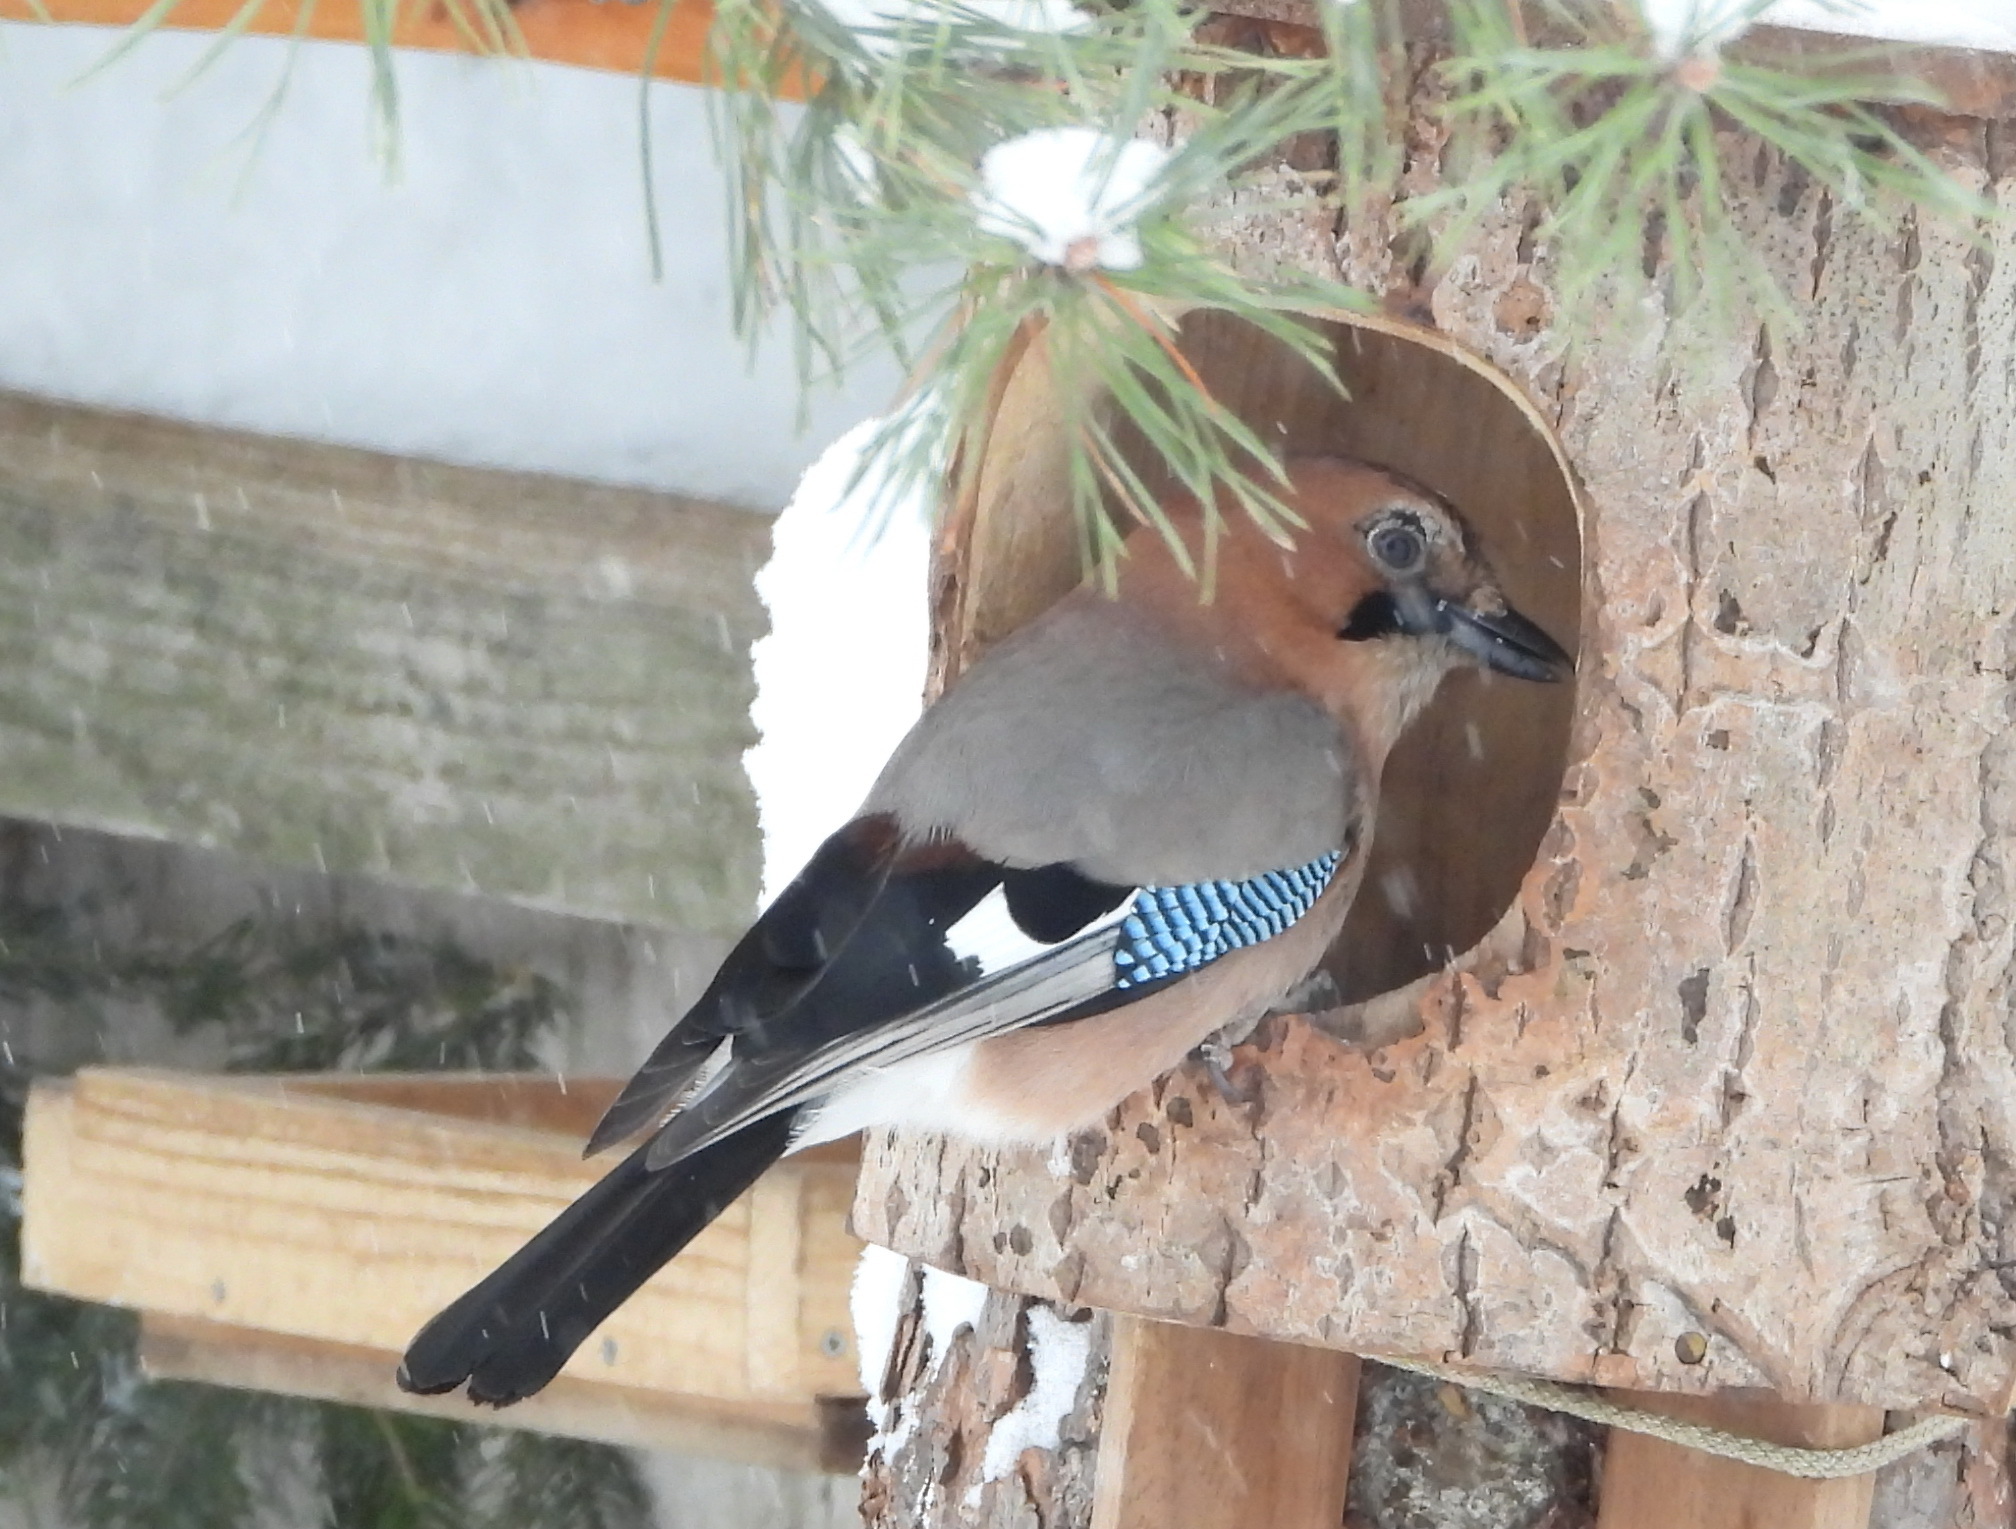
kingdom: Animalia
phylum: Chordata
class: Aves
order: Passeriformes
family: Corvidae
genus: Garrulus
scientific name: Garrulus glandarius
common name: Eurasian jay
